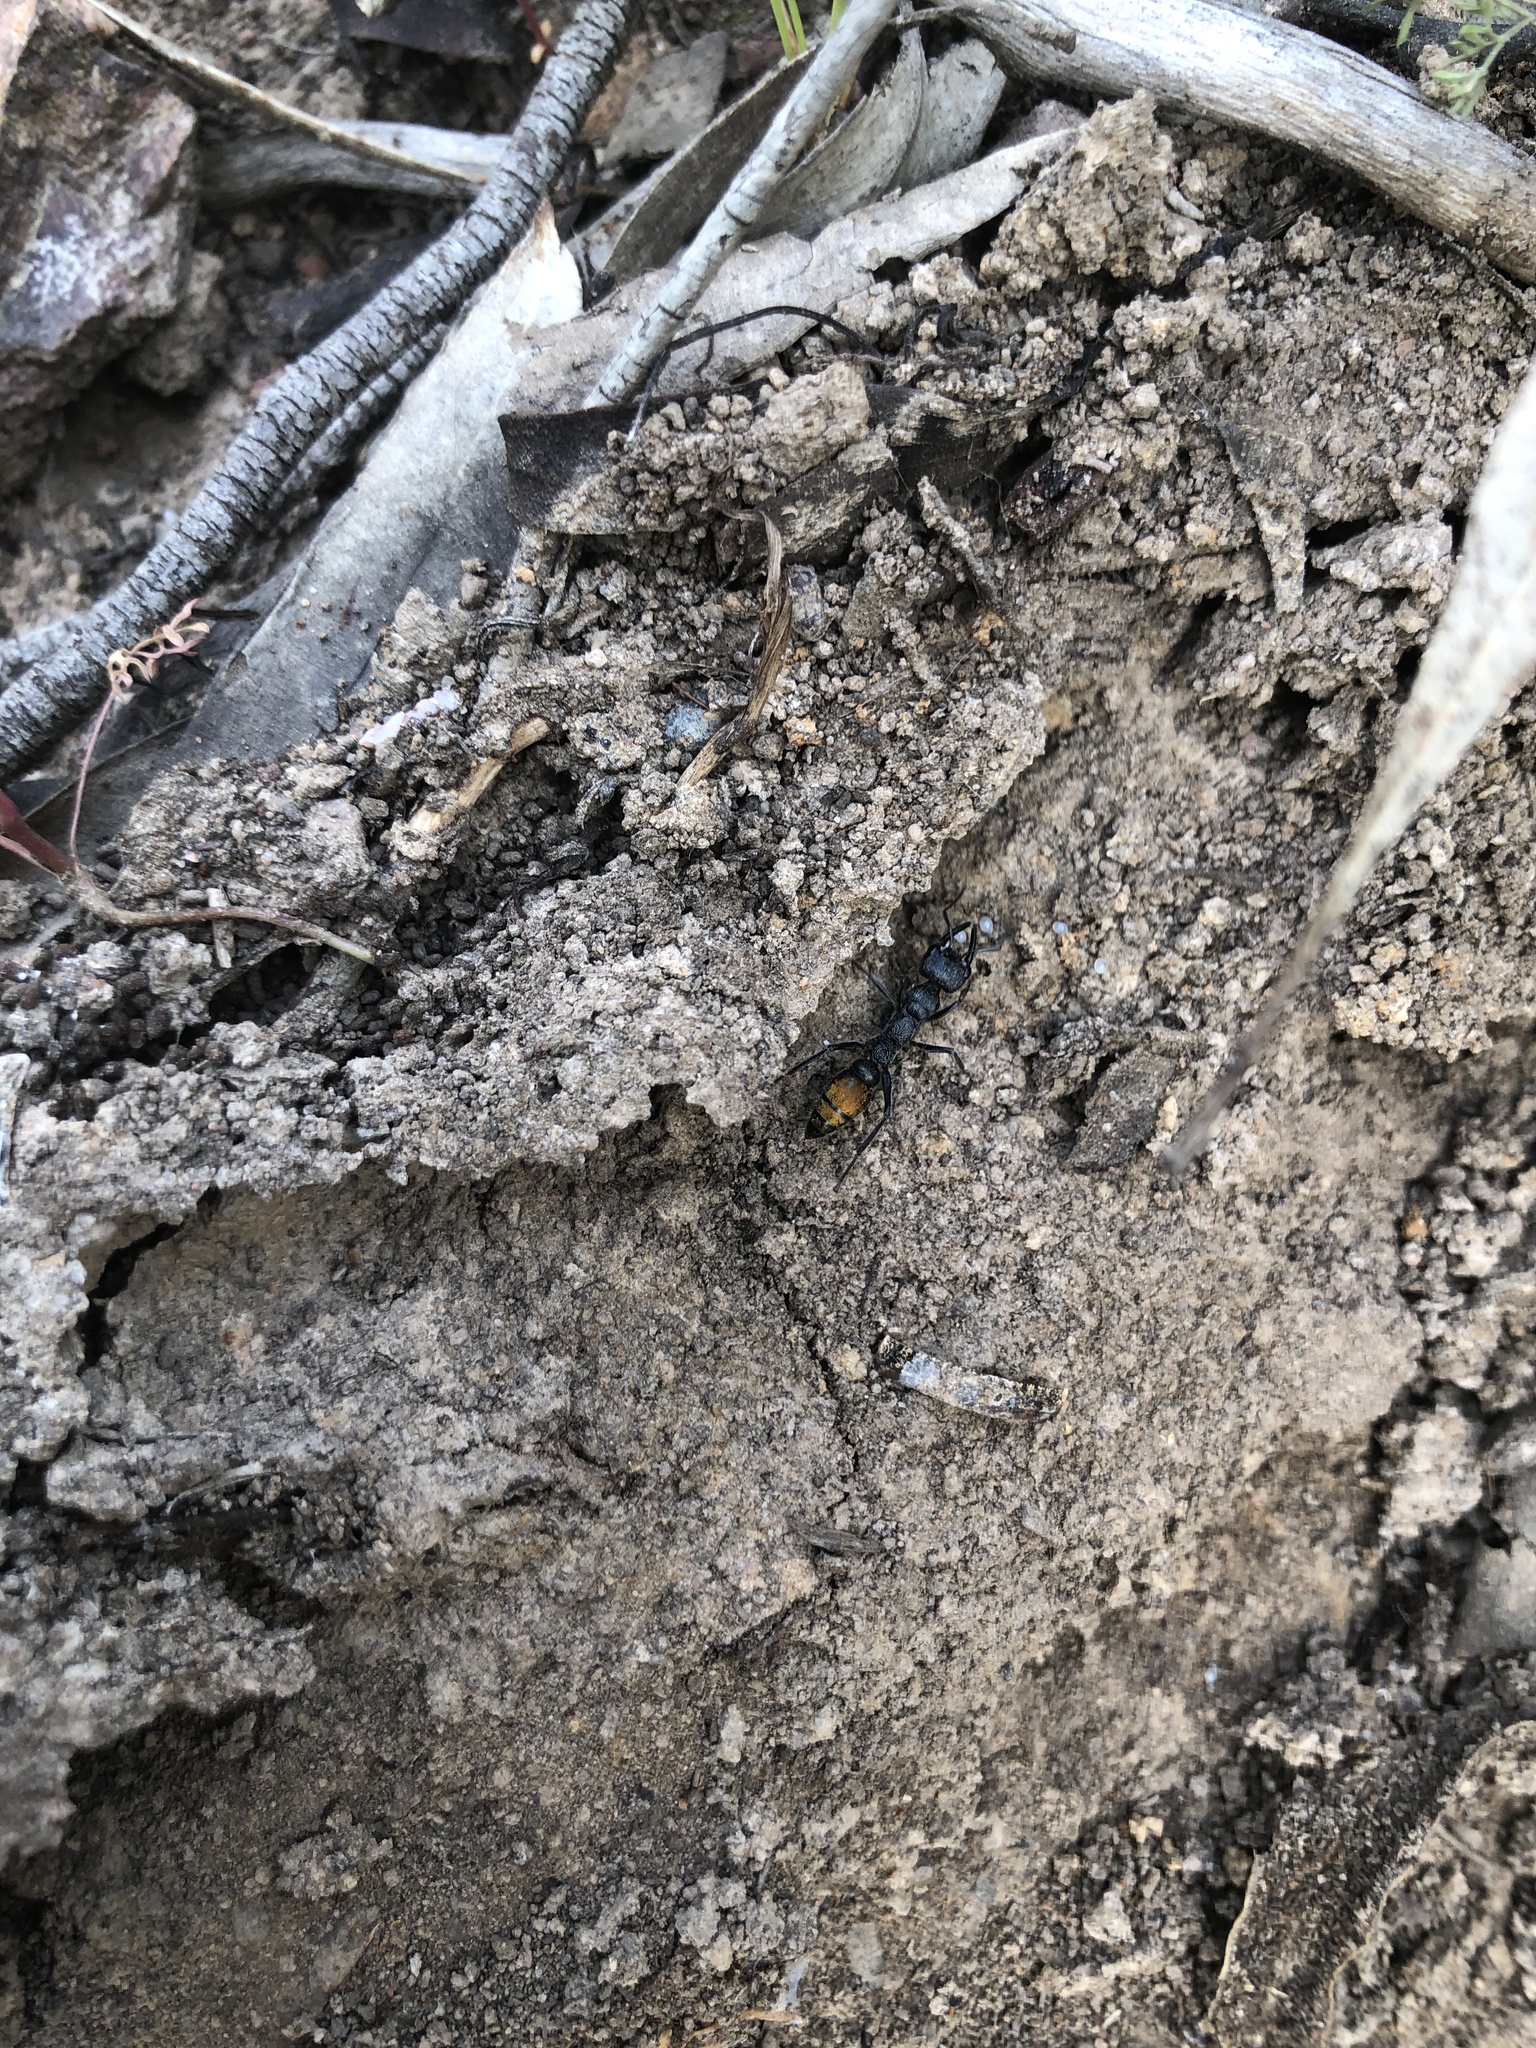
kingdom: Animalia
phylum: Arthropoda
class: Insecta
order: Hymenoptera
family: Formicidae
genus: Myrmecia
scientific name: Myrmecia mandibularis
